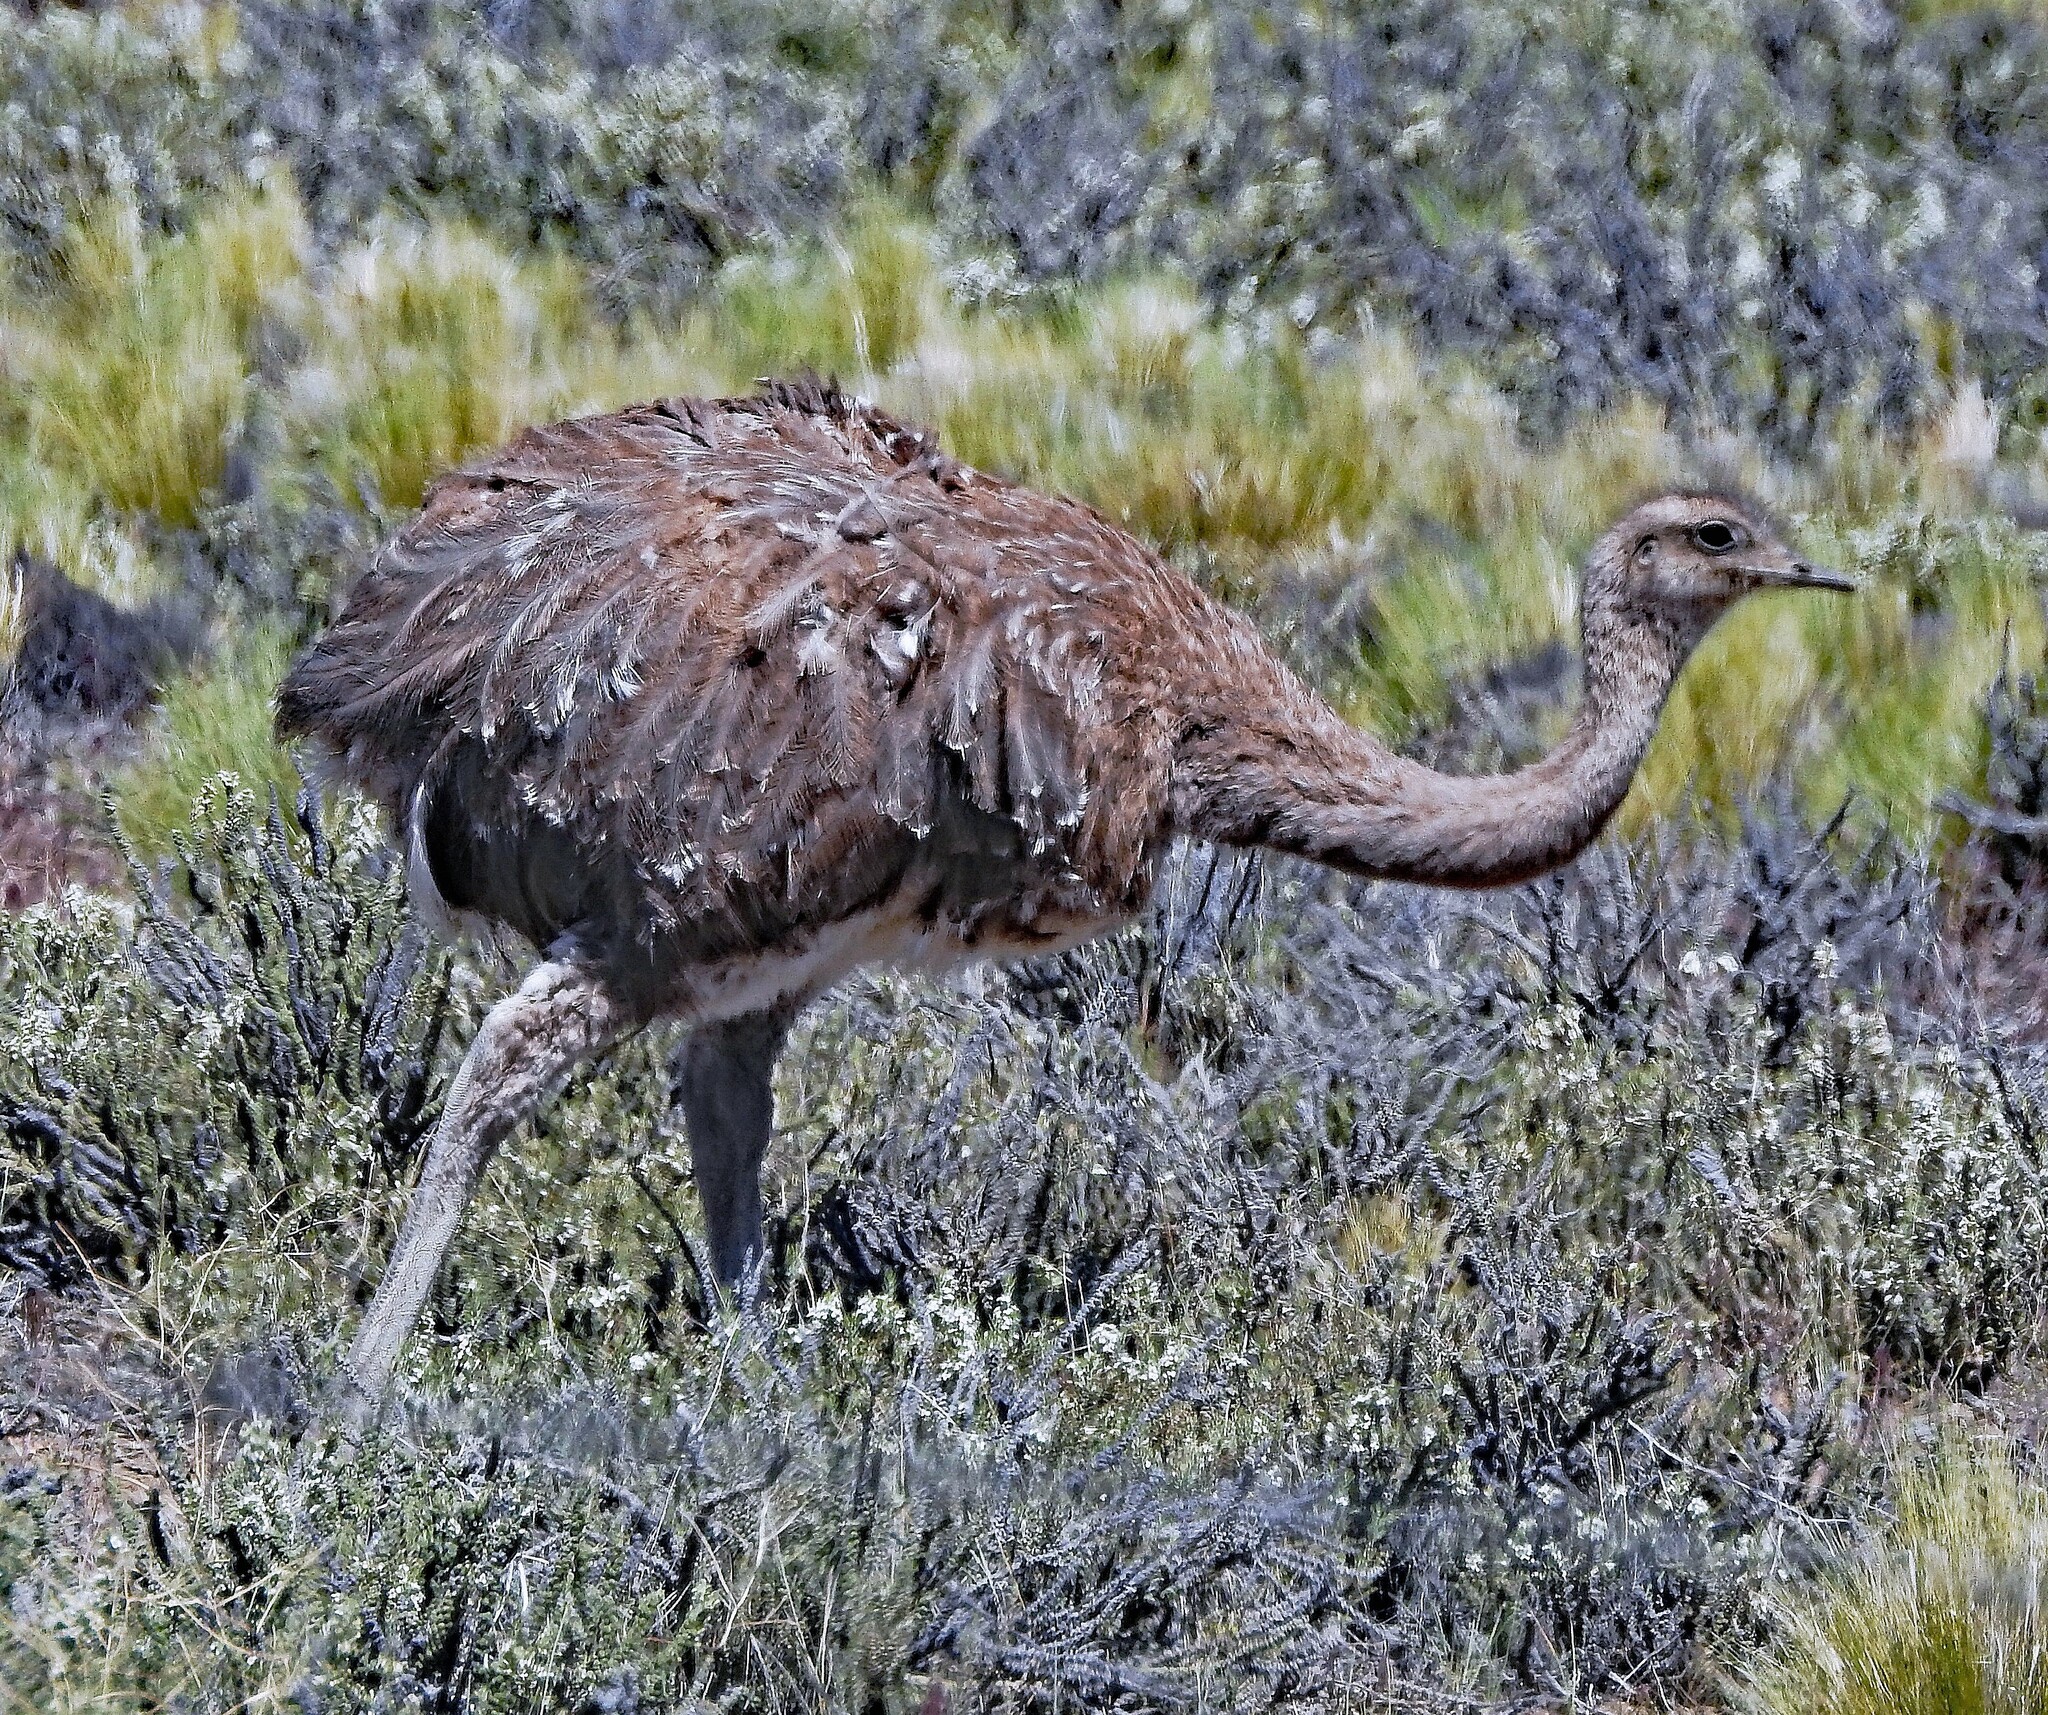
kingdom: Animalia
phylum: Chordata
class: Aves
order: Rheiformes
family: Rheidae
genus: Rhea
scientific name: Rhea pennata
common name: Lesser rhea
